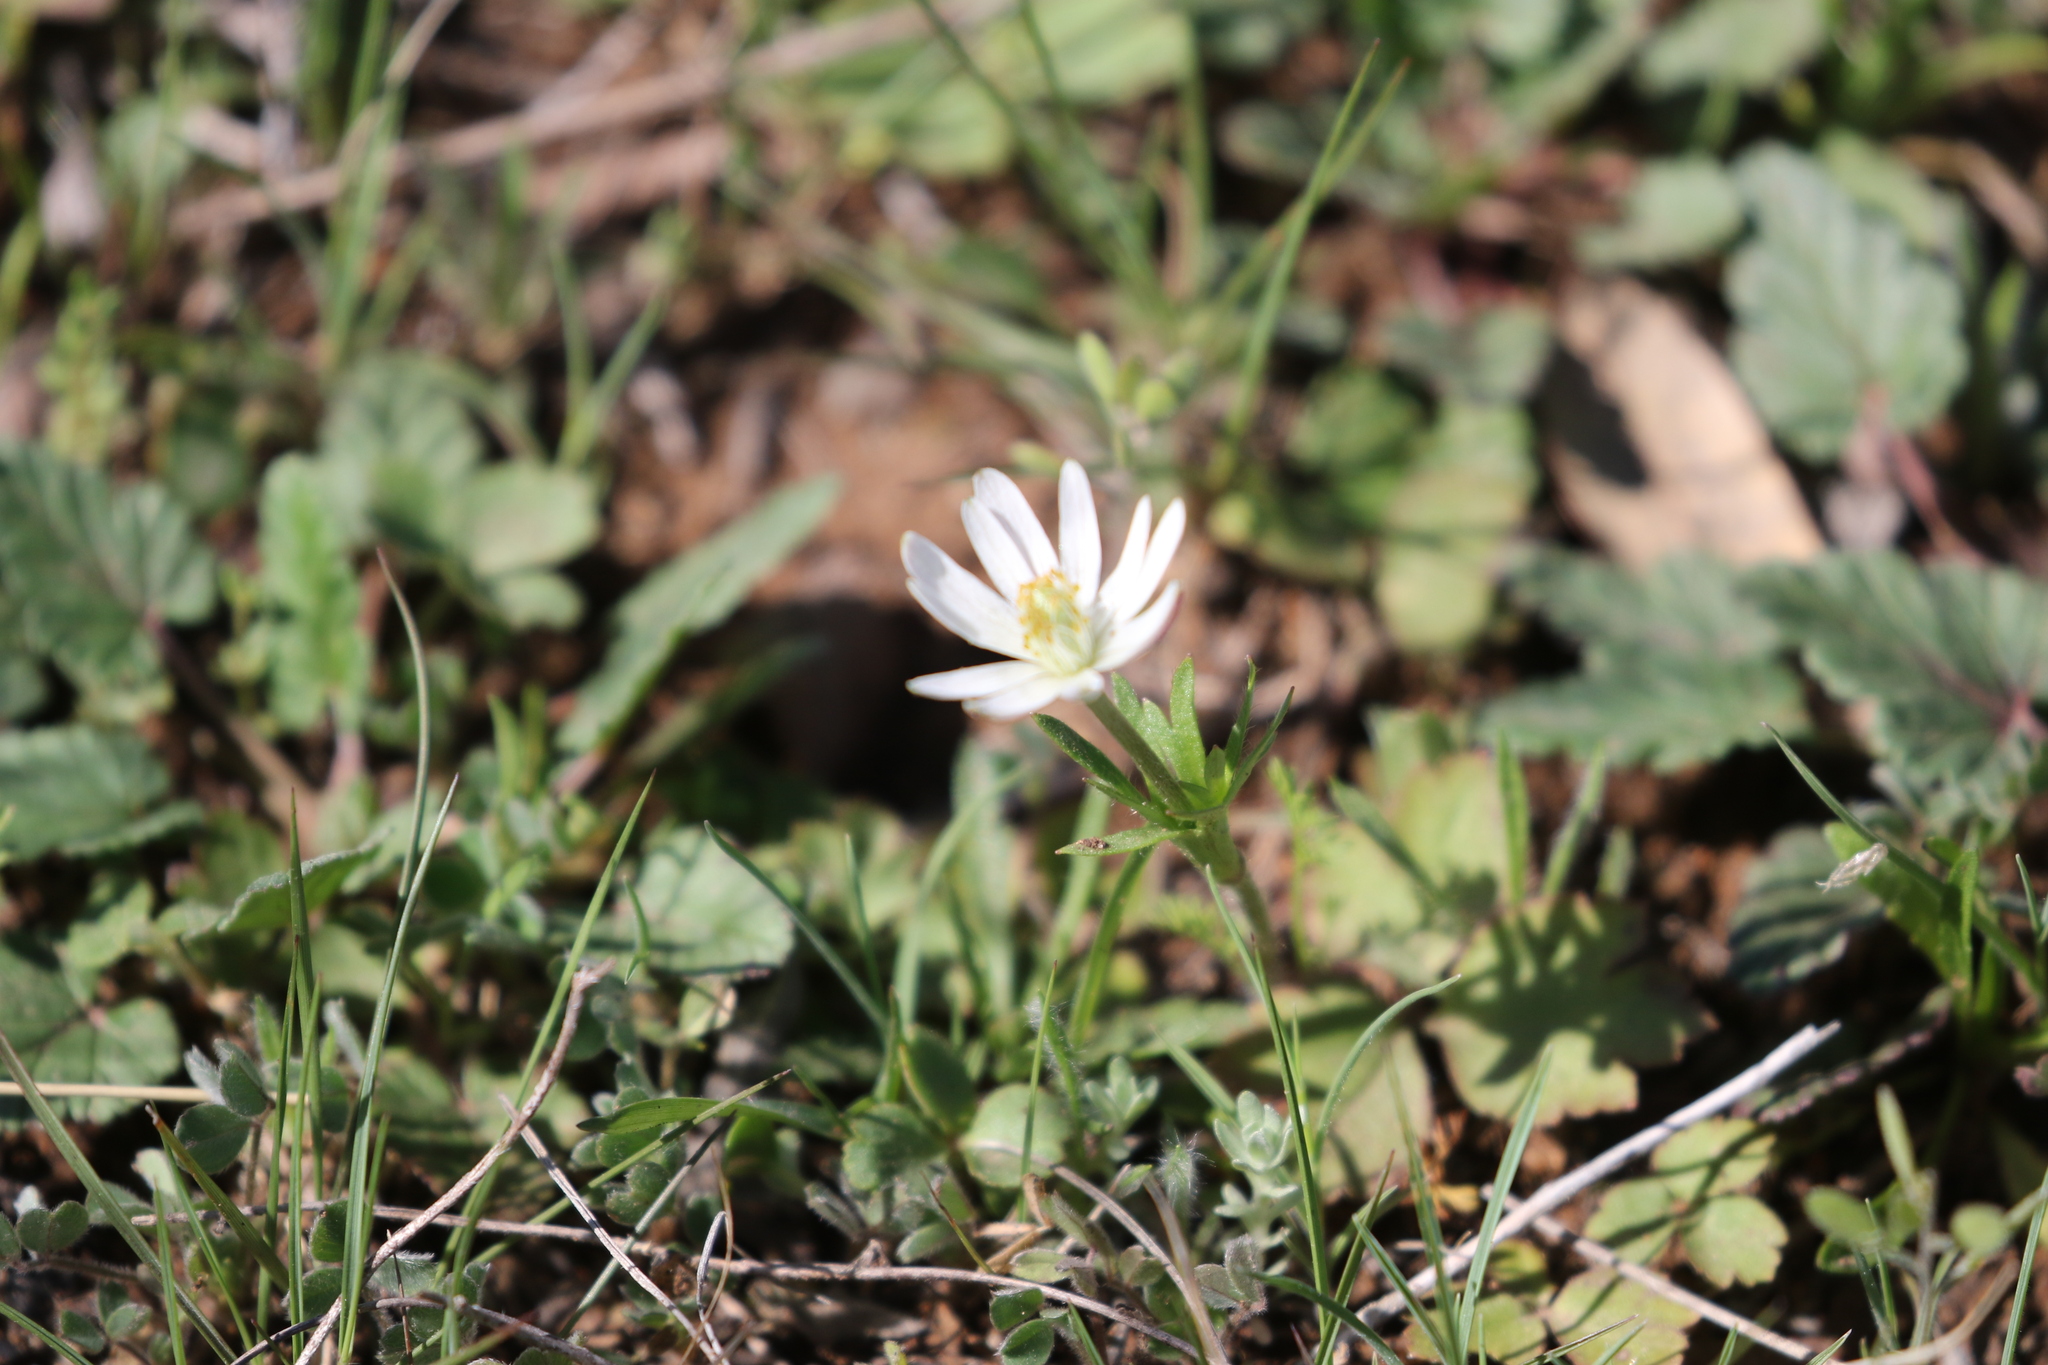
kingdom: Plantae
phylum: Tracheophyta
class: Magnoliopsida
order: Ranunculales
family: Ranunculaceae
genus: Anemone
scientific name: Anemone berlandieri
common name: Ten-petal anemone
